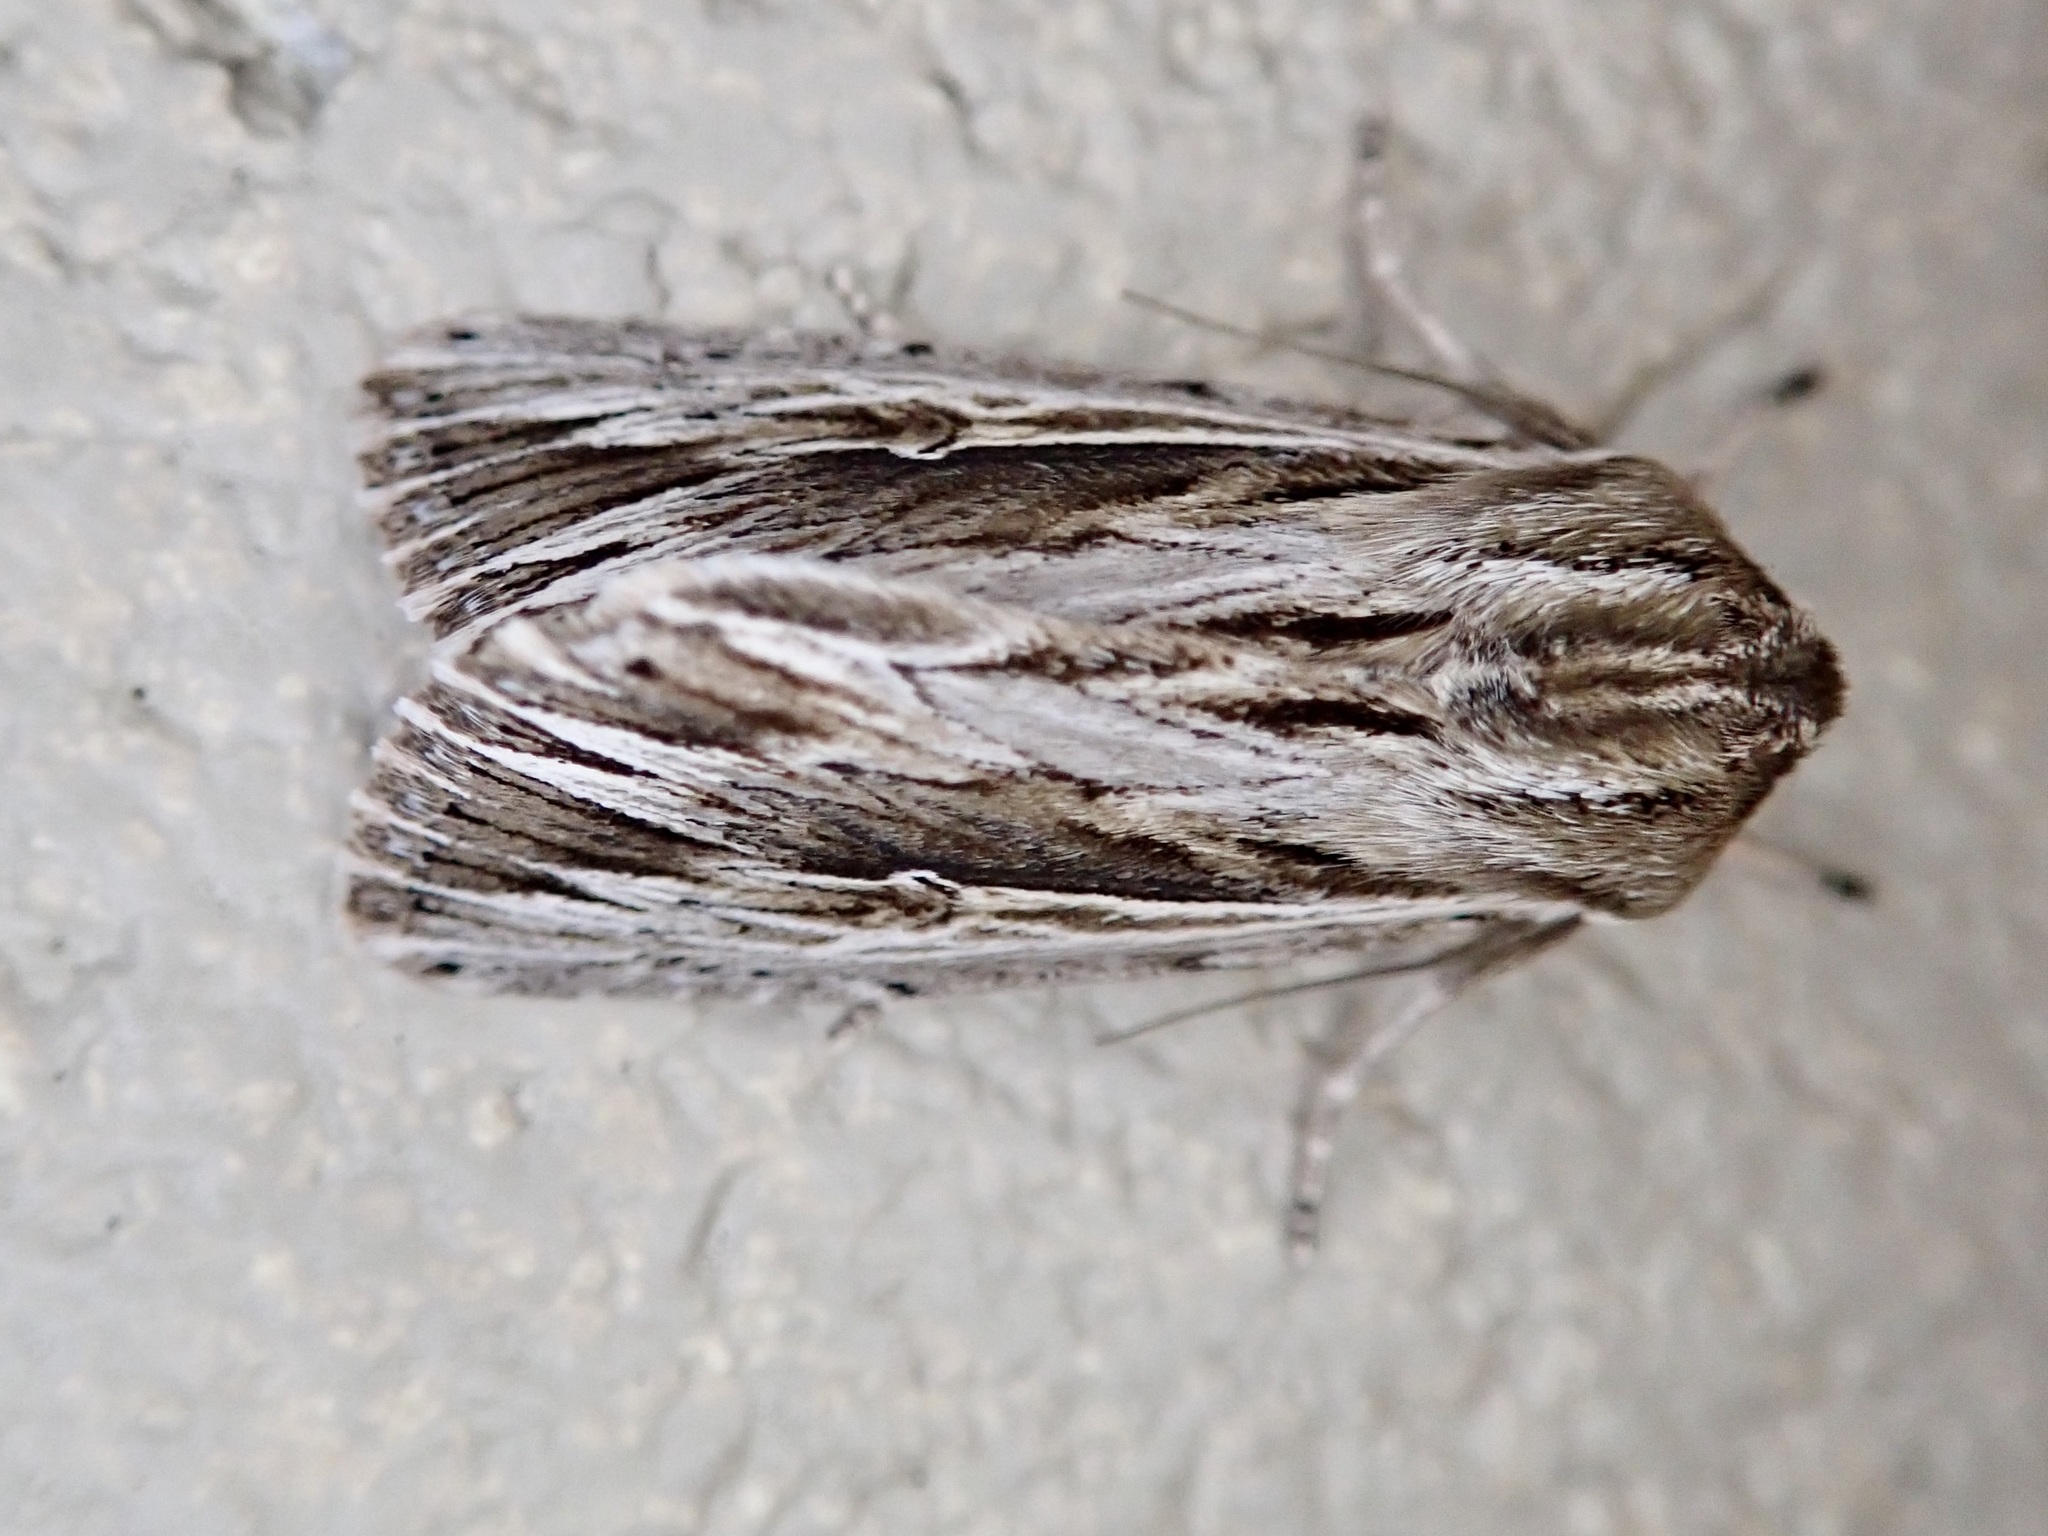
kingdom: Animalia
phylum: Arthropoda
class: Insecta
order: Lepidoptera
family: Noctuidae
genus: Persectania
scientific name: Persectania aversa
